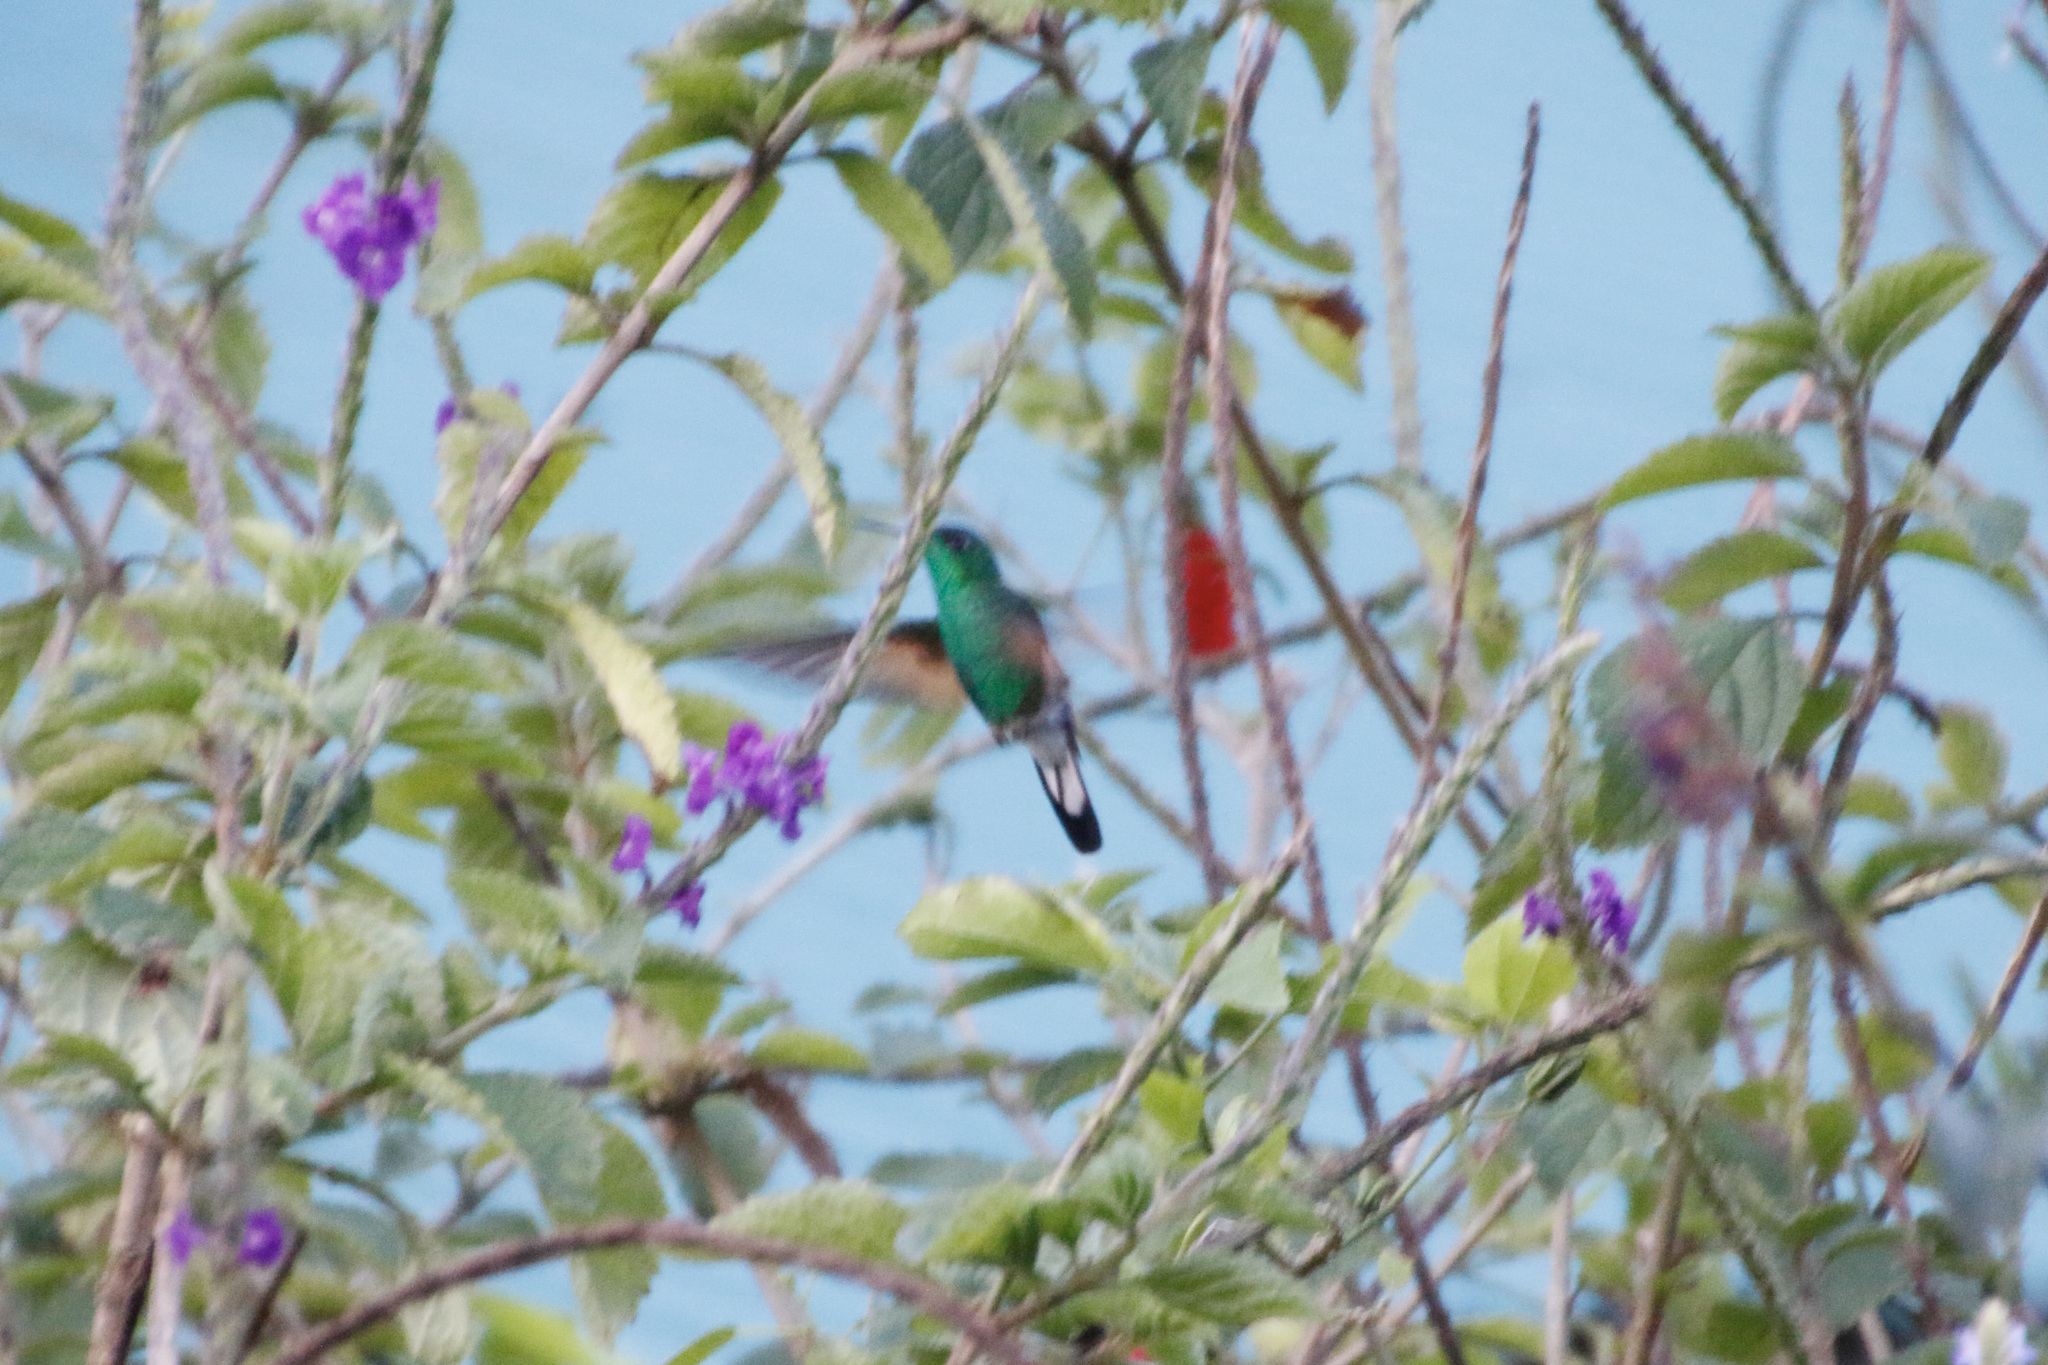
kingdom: Animalia
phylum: Chordata
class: Aves
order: Apodiformes
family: Trochilidae
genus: Eupherusa
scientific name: Eupherusa eximia
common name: Stripe-tailed hummingbird
